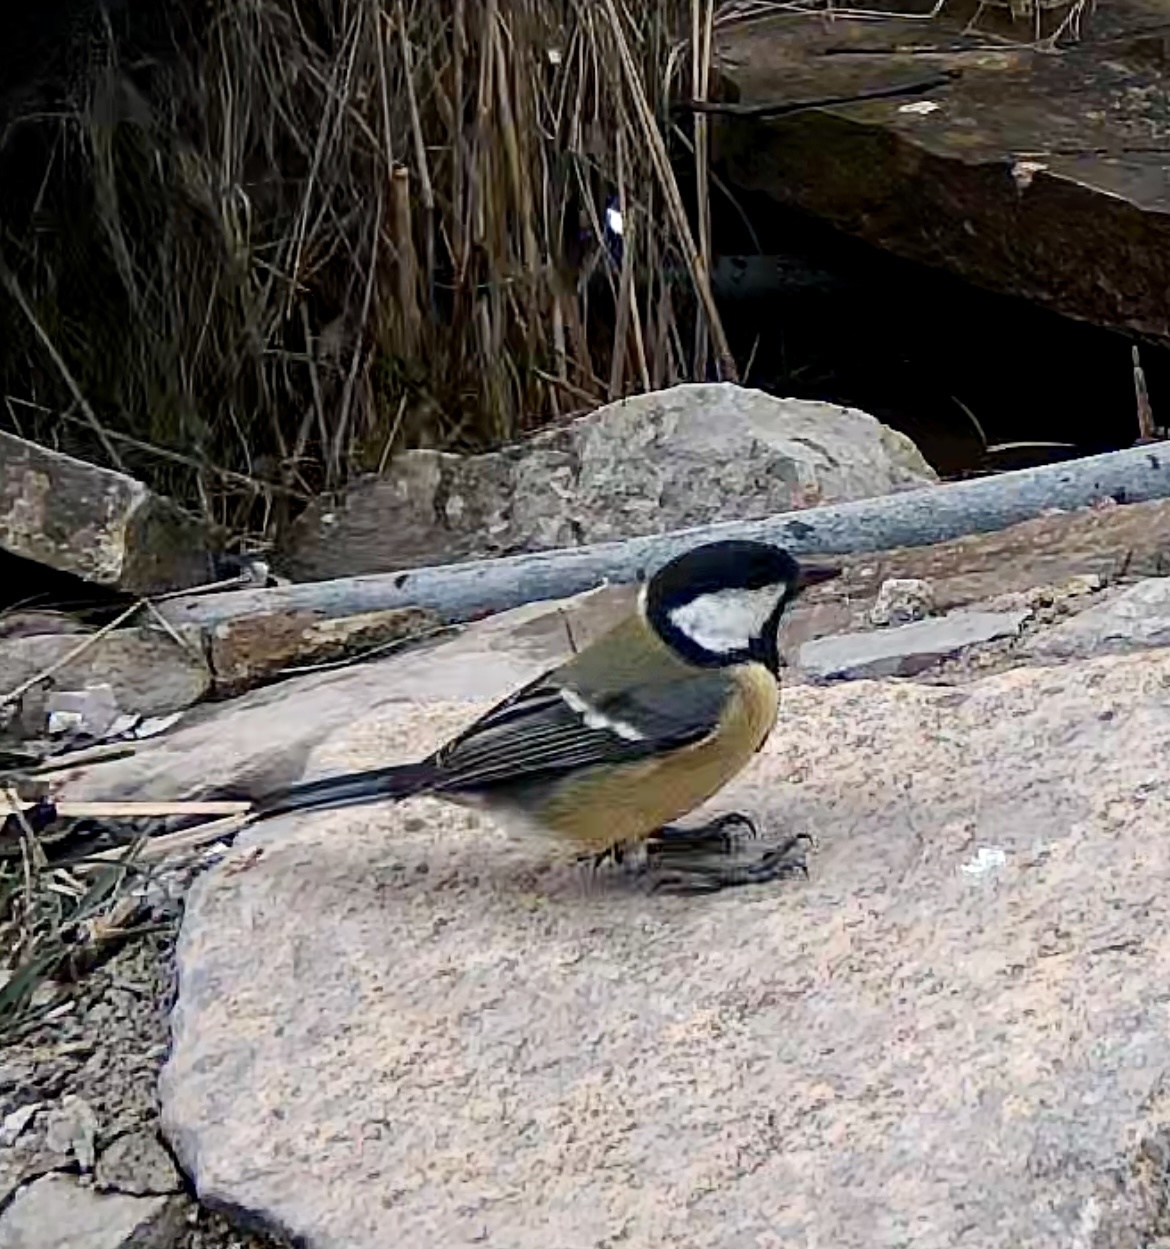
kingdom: Animalia
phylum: Chordata
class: Aves
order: Passeriformes
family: Paridae
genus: Parus
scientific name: Parus major
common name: Great tit
